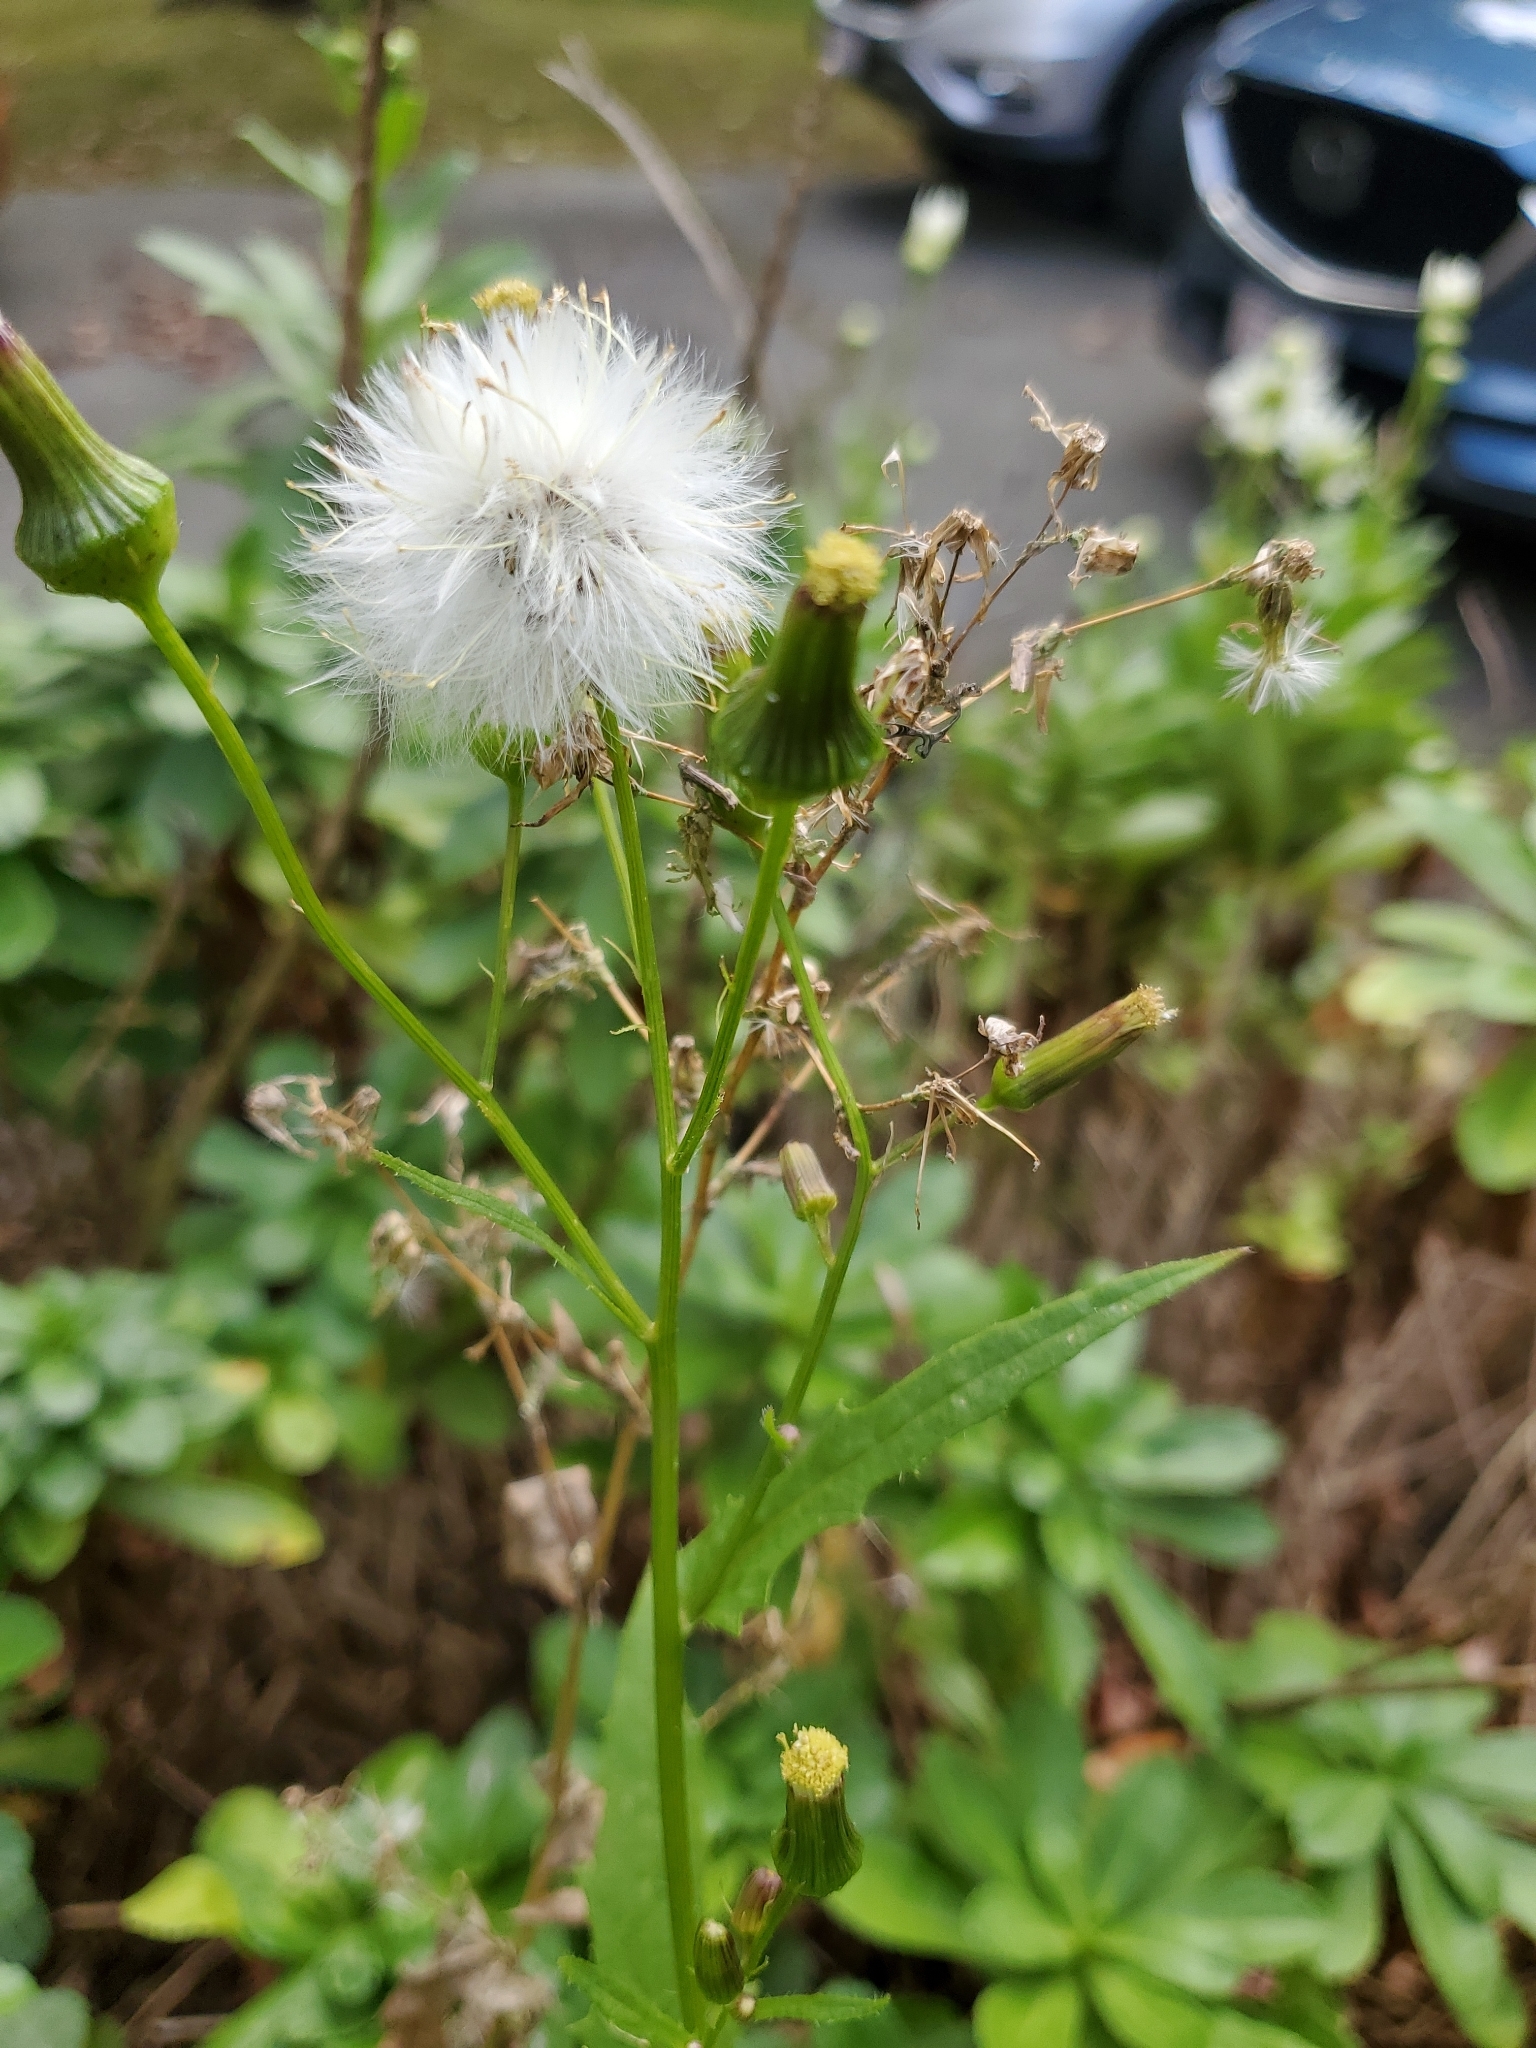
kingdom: Plantae
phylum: Tracheophyta
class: Magnoliopsida
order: Asterales
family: Asteraceae
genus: Erechtites
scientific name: Erechtites hieraciifolius
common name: American burnweed
